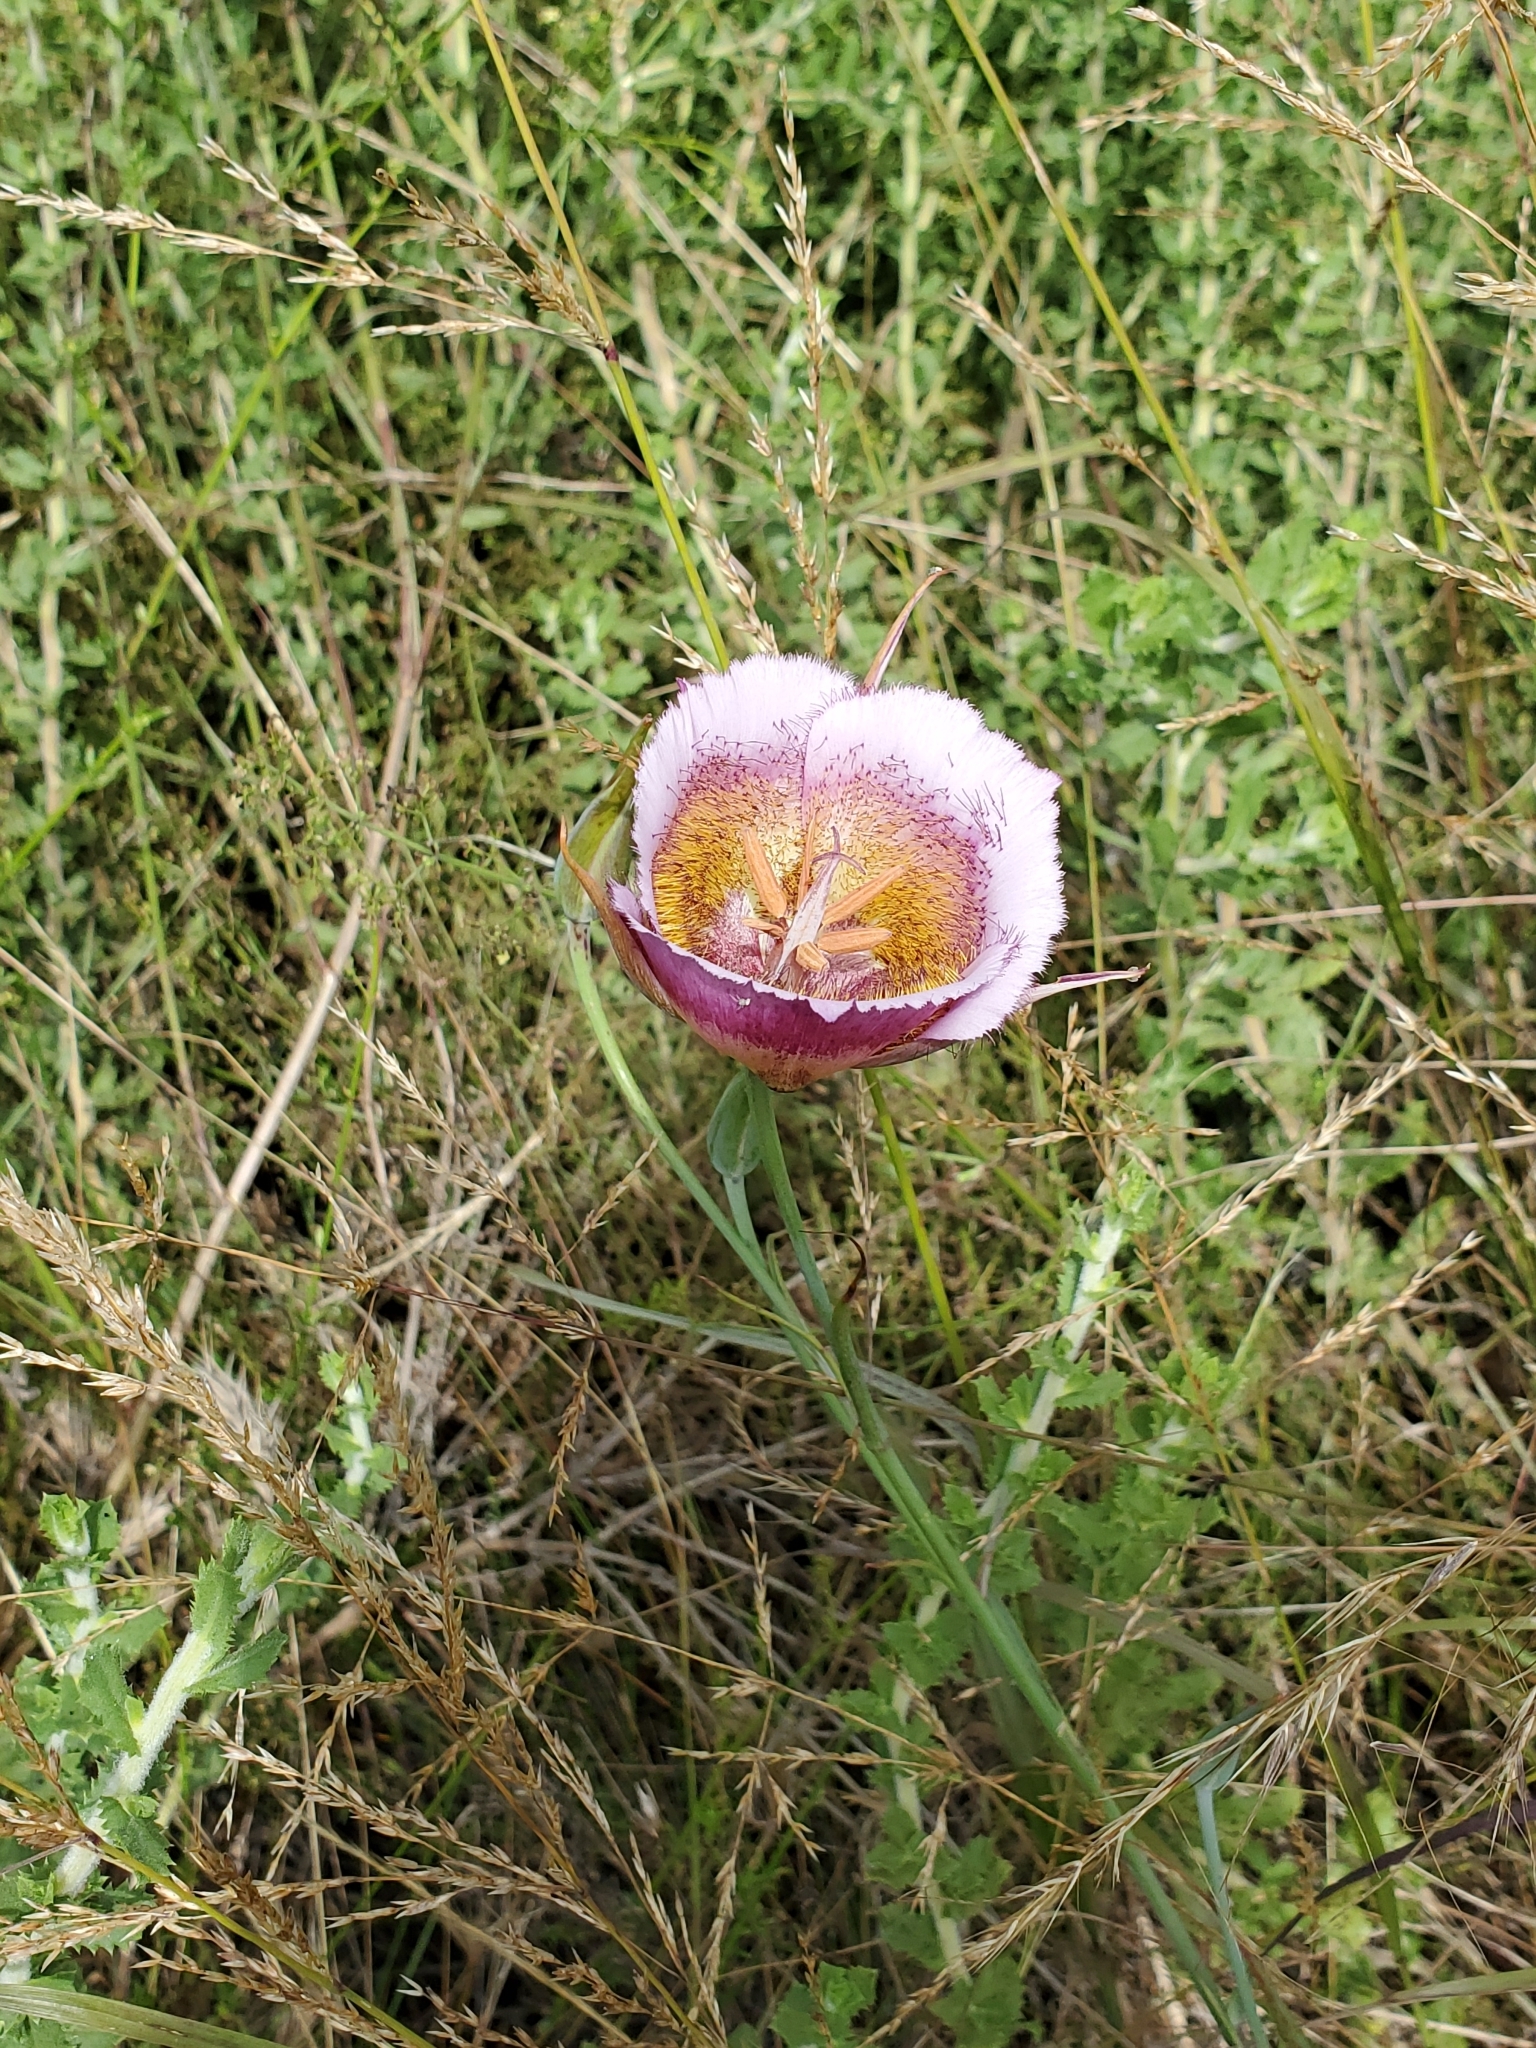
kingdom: Plantae
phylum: Tracheophyta
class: Liliopsida
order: Liliales
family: Liliaceae
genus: Calochortus
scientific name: Calochortus plummerae
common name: Plummer's mariposa-lily
